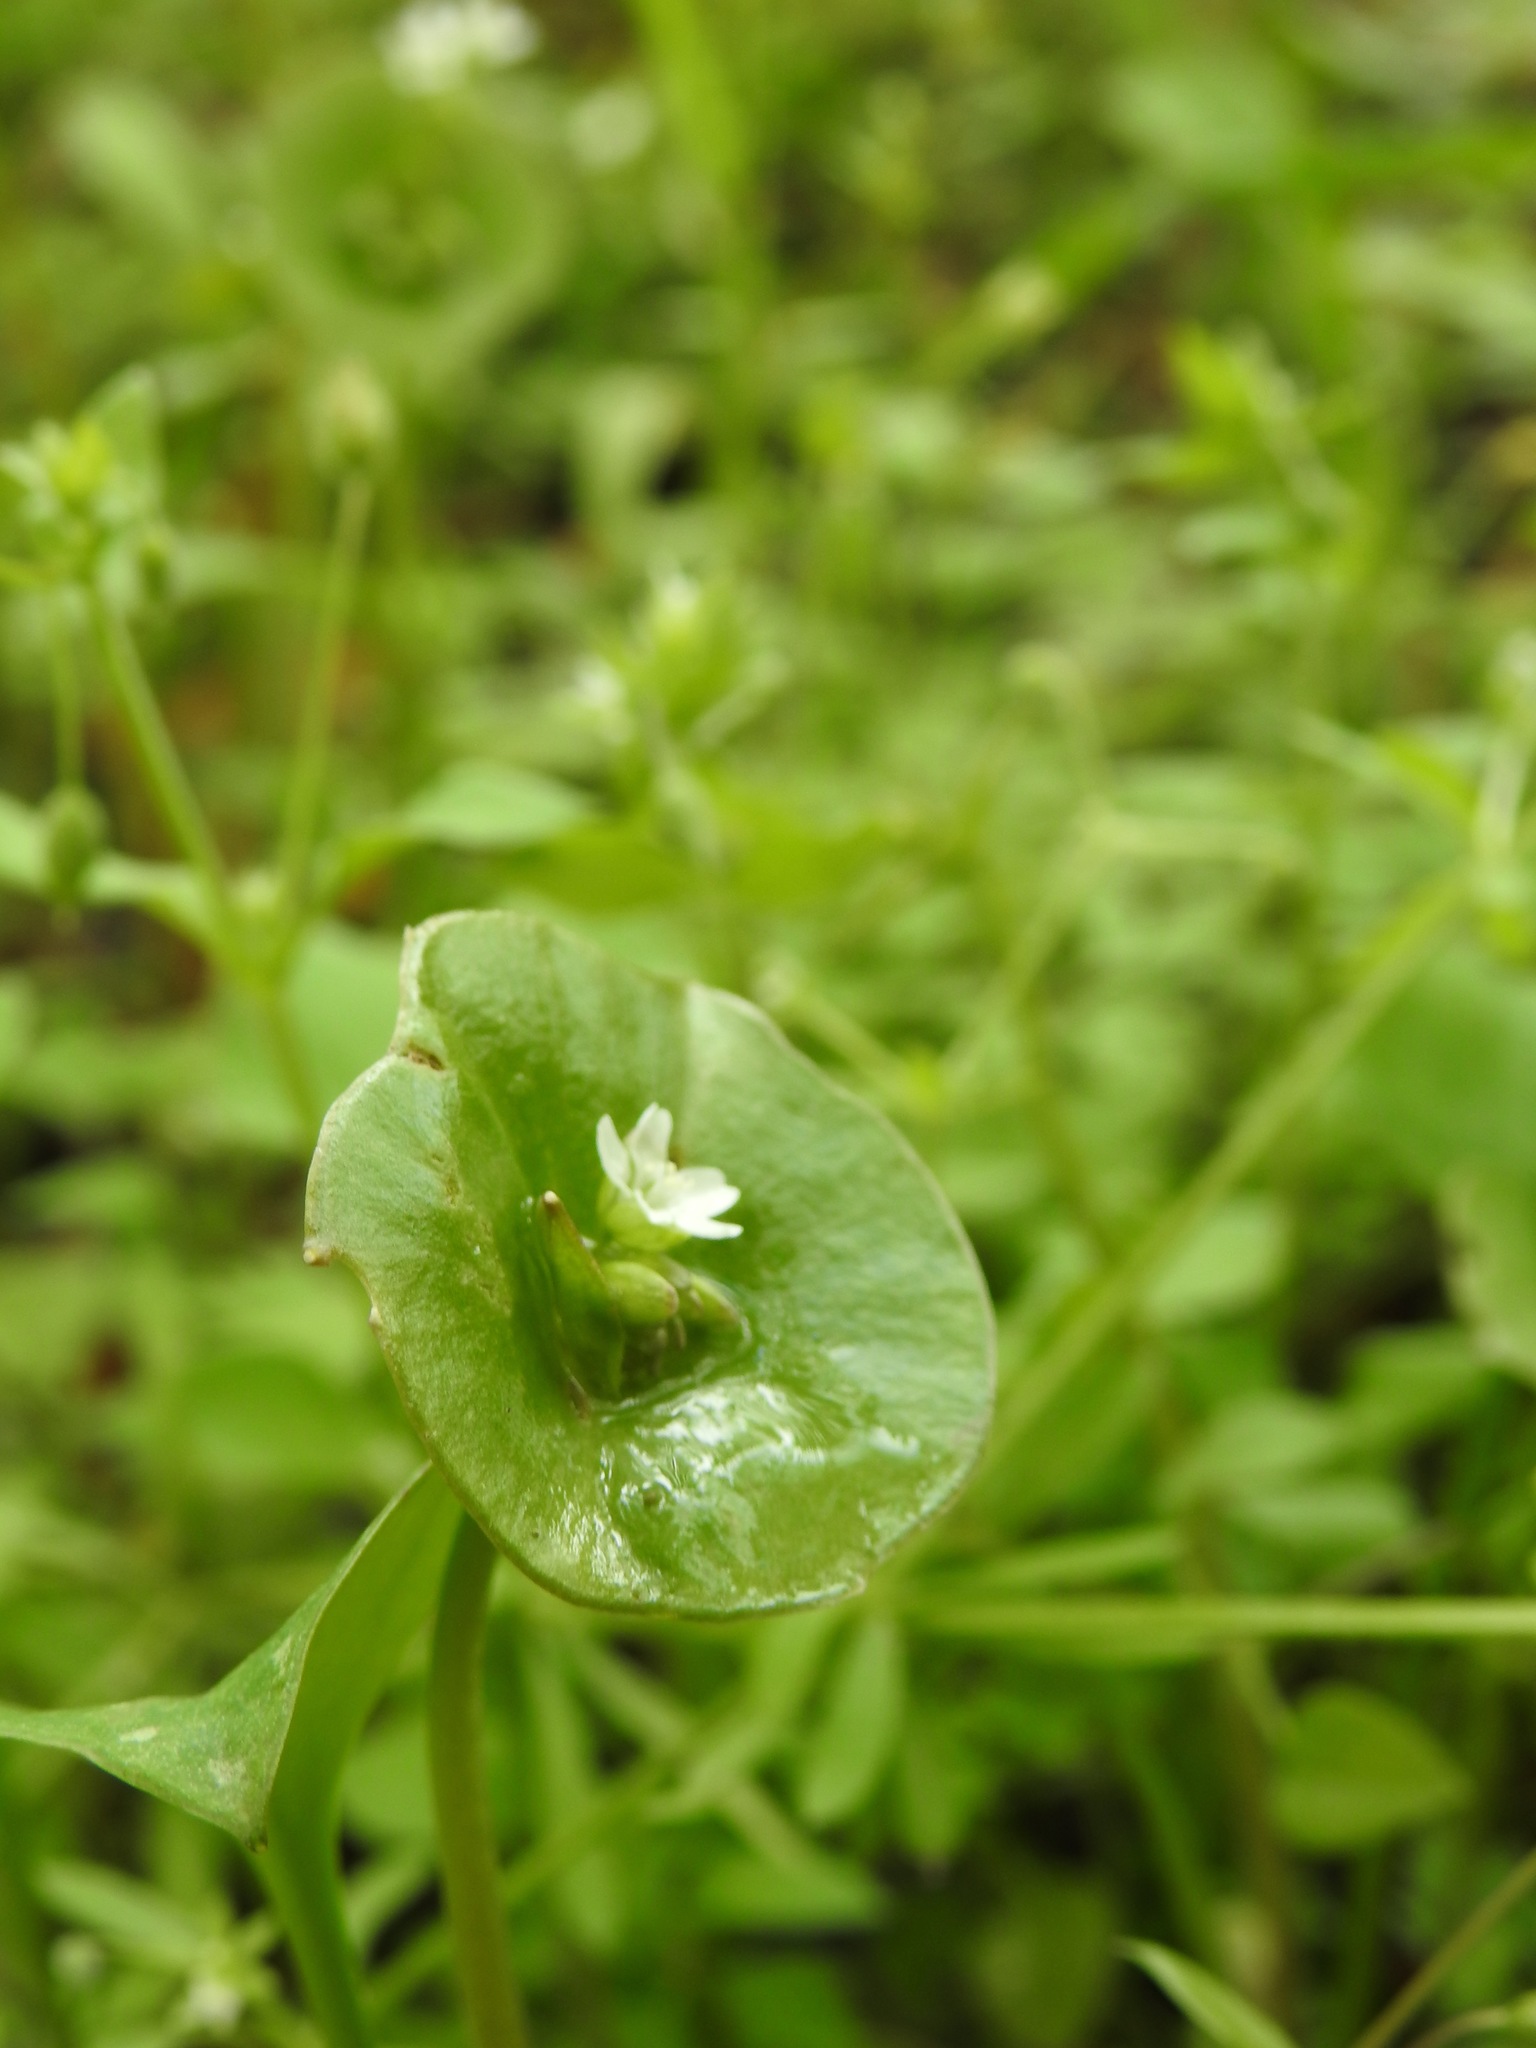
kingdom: Plantae
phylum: Tracheophyta
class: Magnoliopsida
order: Caryophyllales
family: Montiaceae
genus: Claytonia
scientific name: Claytonia perfoliata
